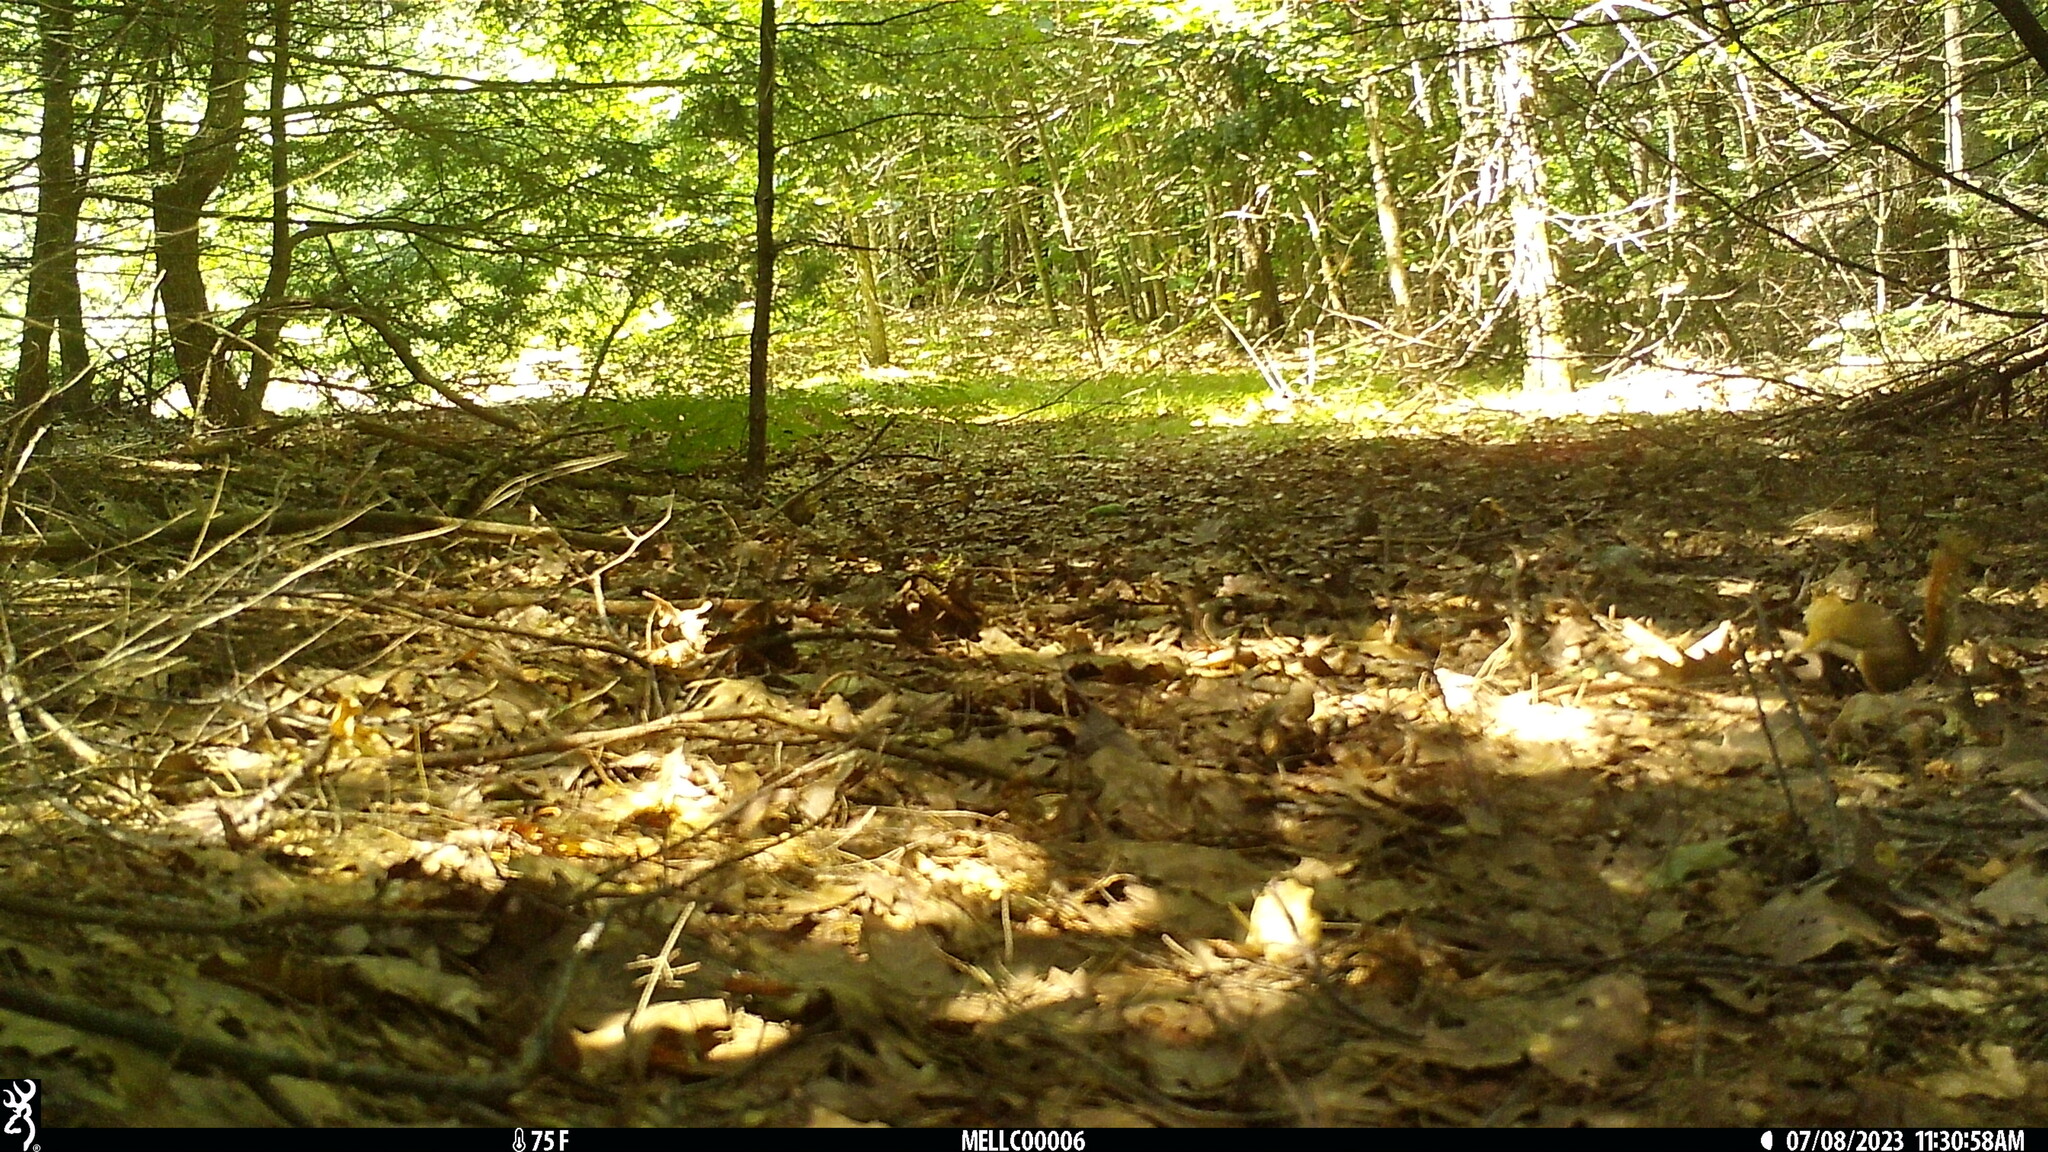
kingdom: Animalia
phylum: Chordata
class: Mammalia
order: Rodentia
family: Sciuridae
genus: Tamiasciurus
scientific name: Tamiasciurus hudsonicus
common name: Red squirrel
